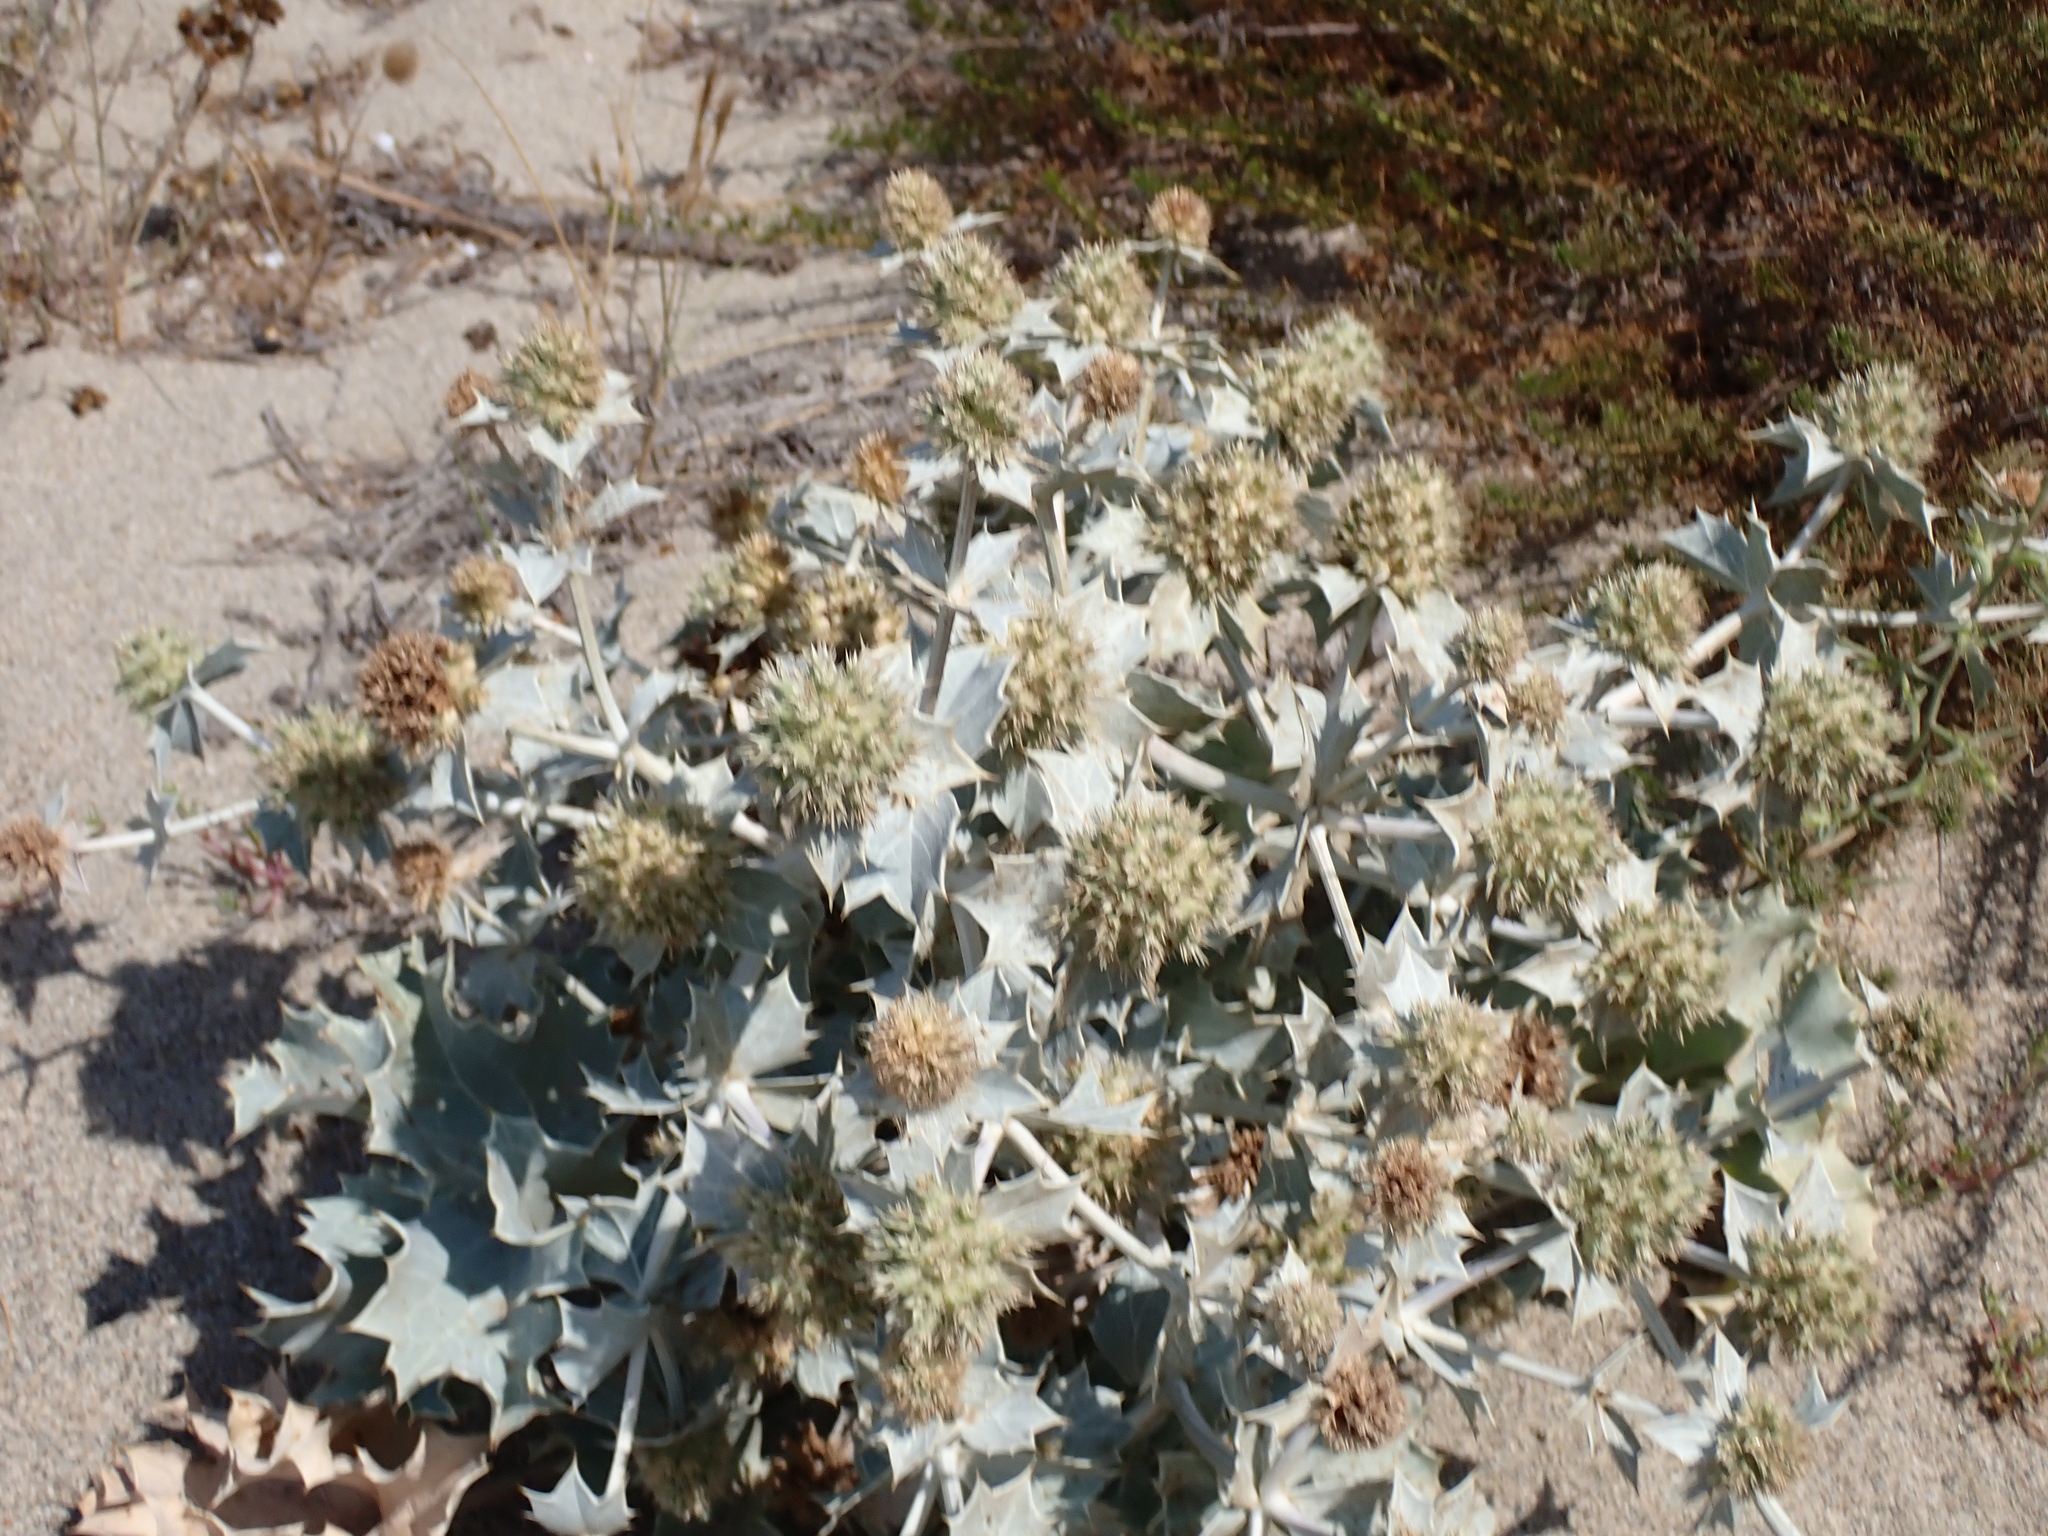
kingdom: Plantae
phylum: Tracheophyta
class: Magnoliopsida
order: Apiales
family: Apiaceae
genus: Eryngium
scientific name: Eryngium maritimum
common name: Sea-holly
